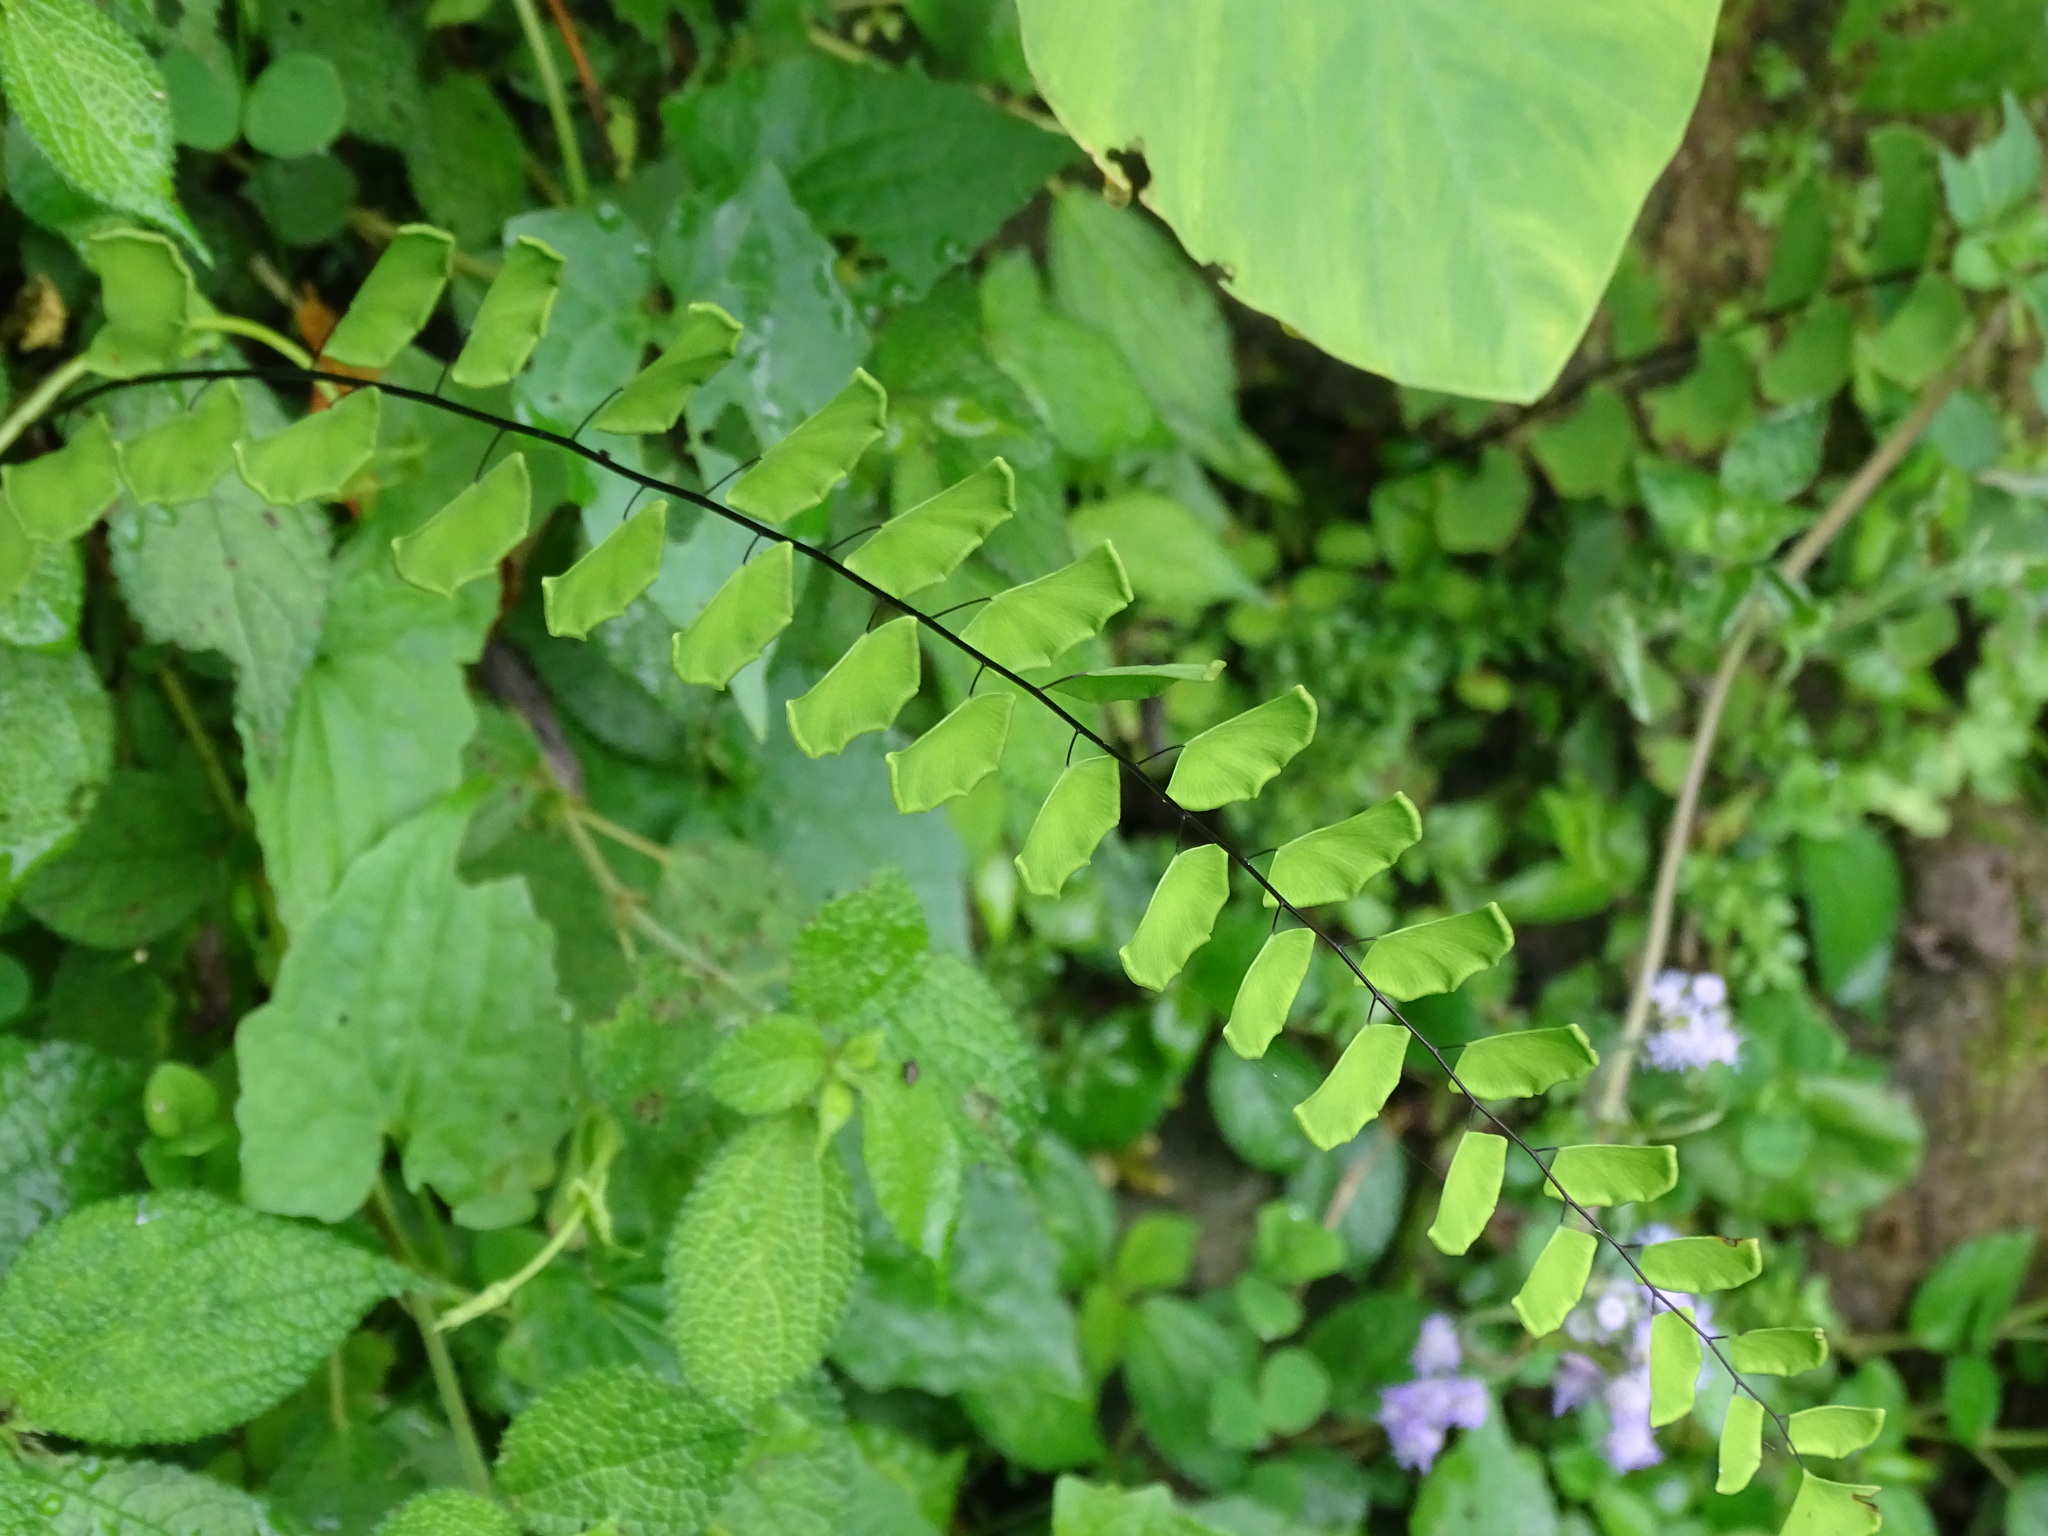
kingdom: Plantae
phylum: Tracheophyta
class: Polypodiopsida
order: Polypodiales
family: Pteridaceae
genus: Adiantum
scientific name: Adiantum philippense
